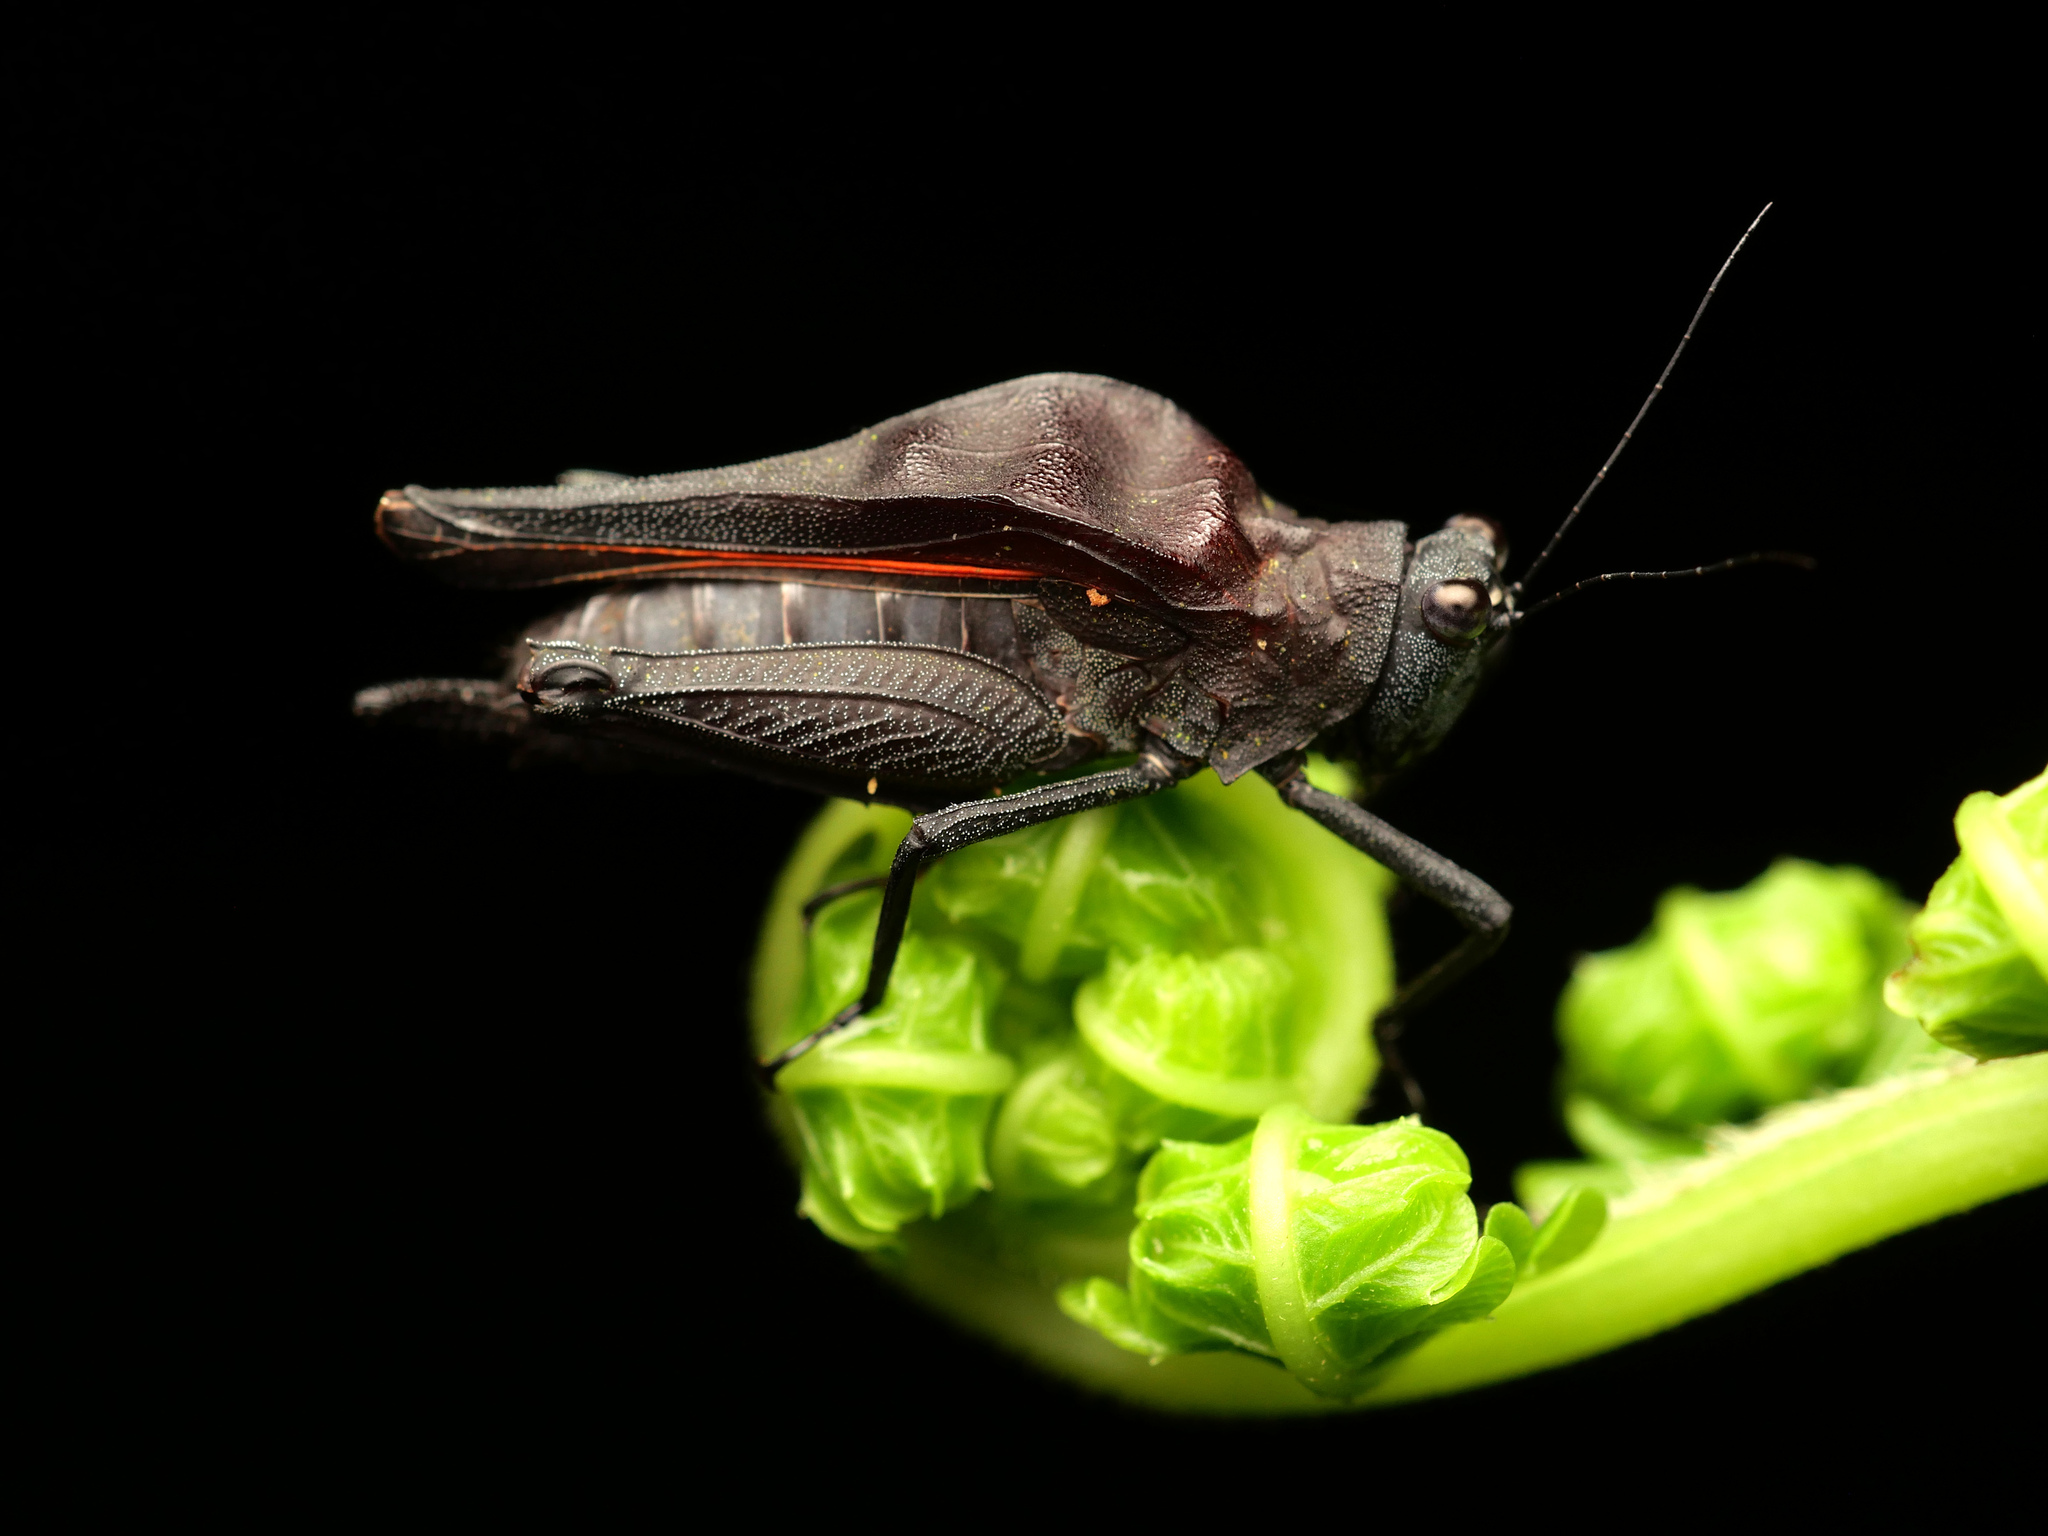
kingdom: Animalia
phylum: Arthropoda
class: Insecta
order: Orthoptera
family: Tetrigidae
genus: Camelotettix
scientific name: Camelotettix curvinotus
